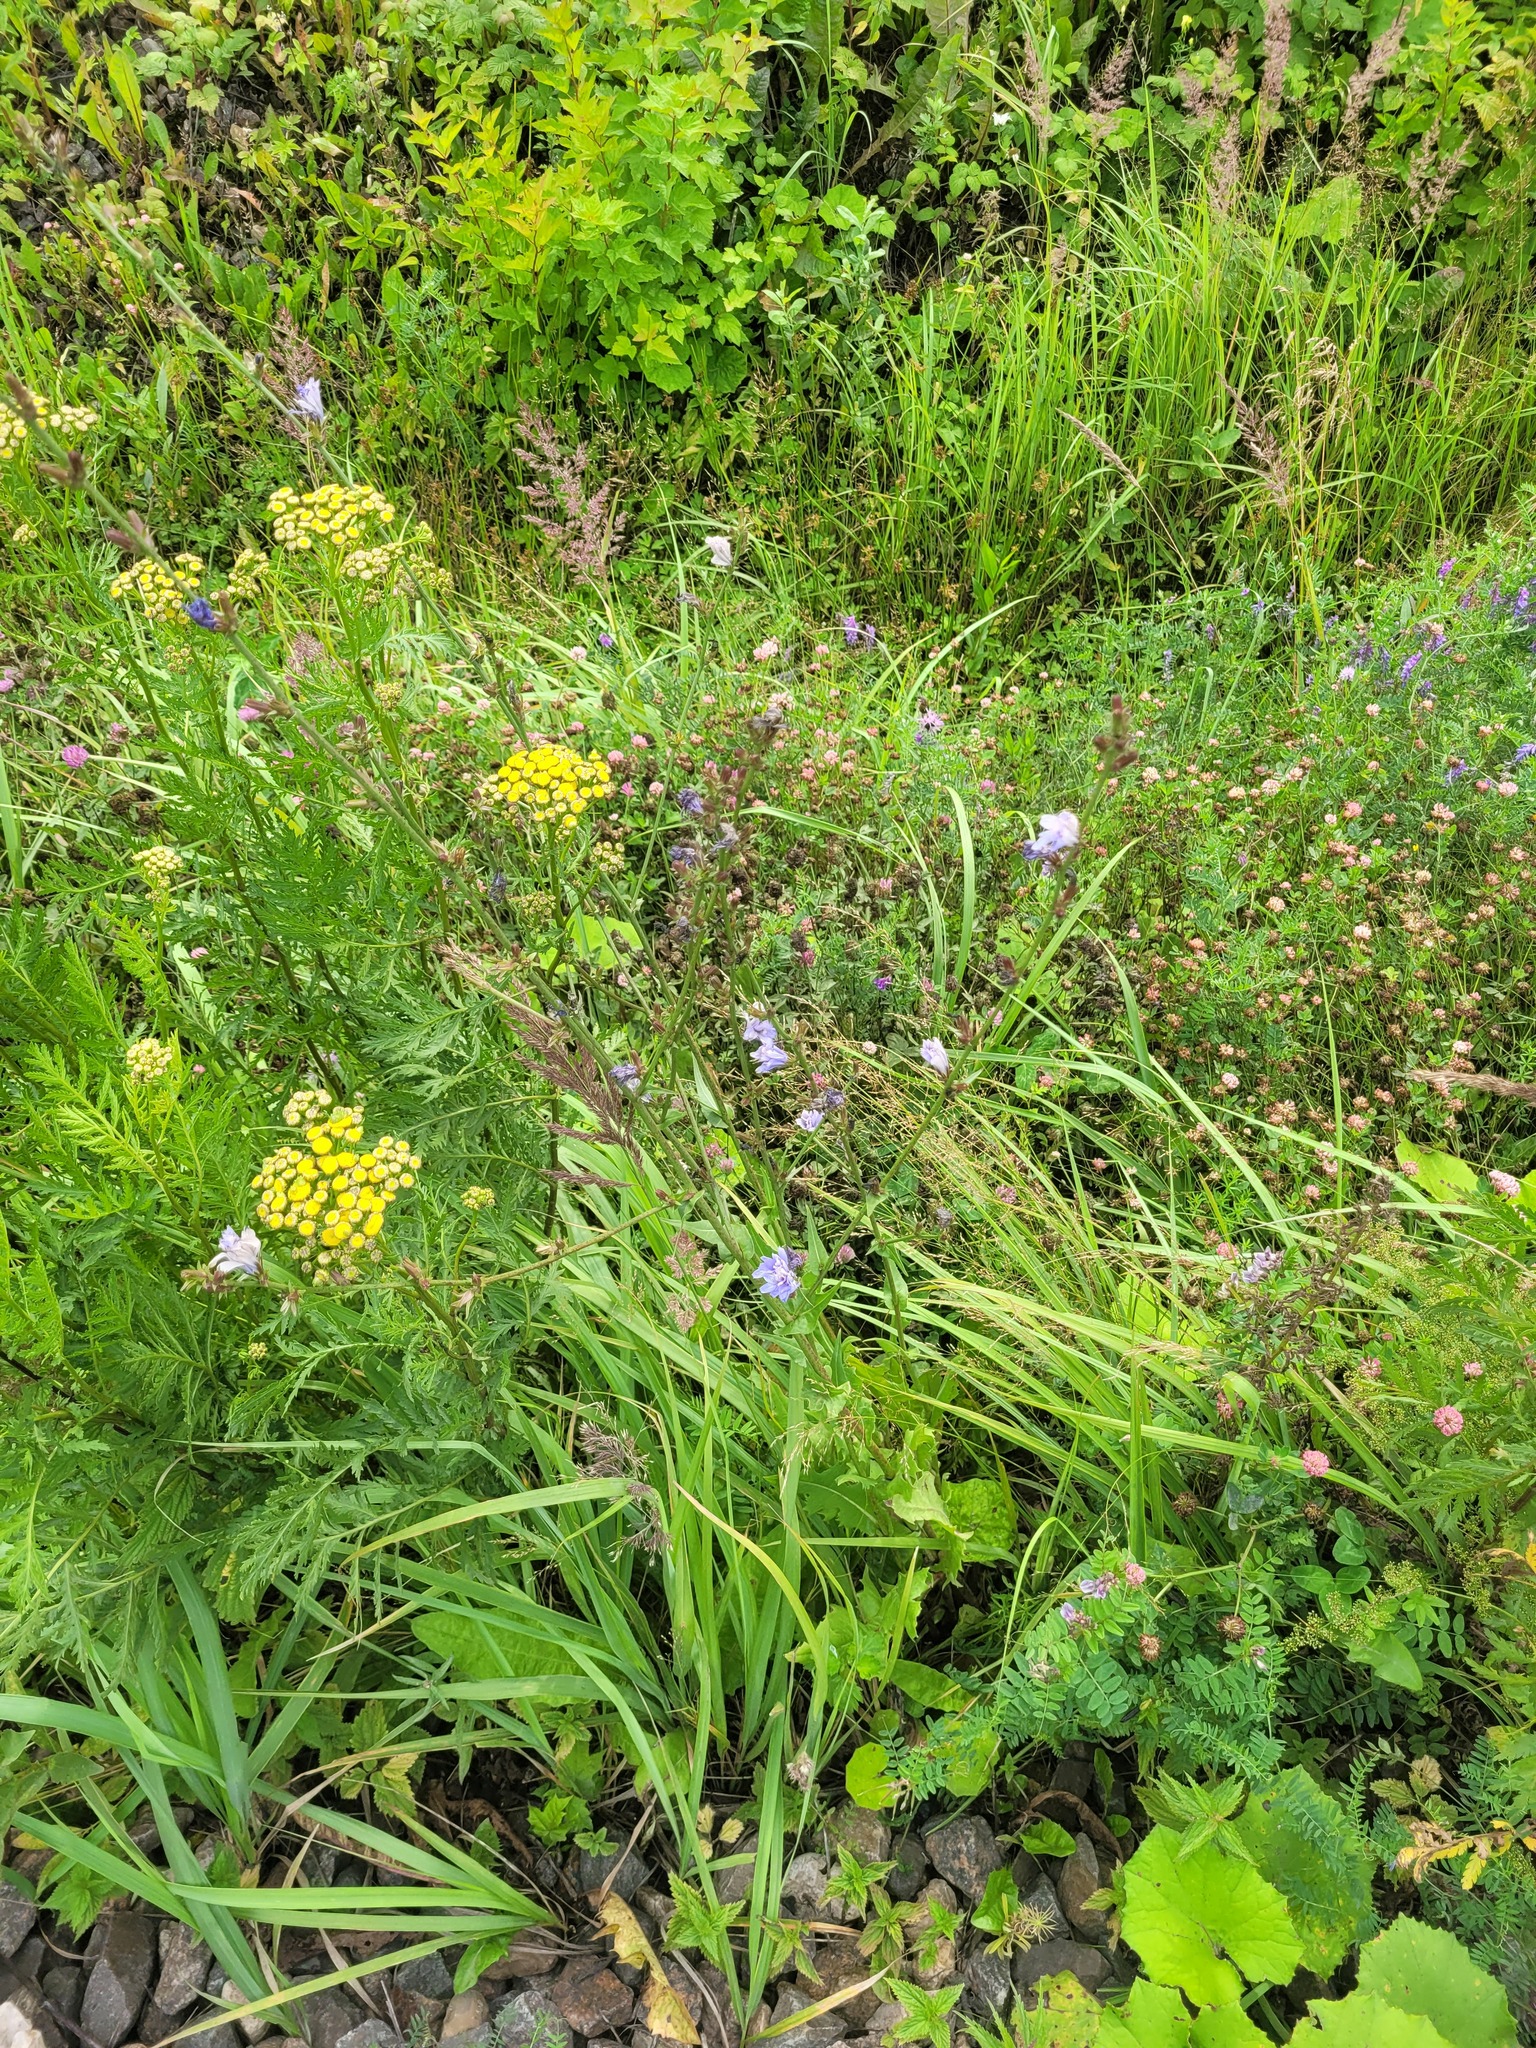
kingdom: Plantae
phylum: Tracheophyta
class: Magnoliopsida
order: Asterales
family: Asteraceae
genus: Cichorium
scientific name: Cichorium intybus
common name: Chicory
